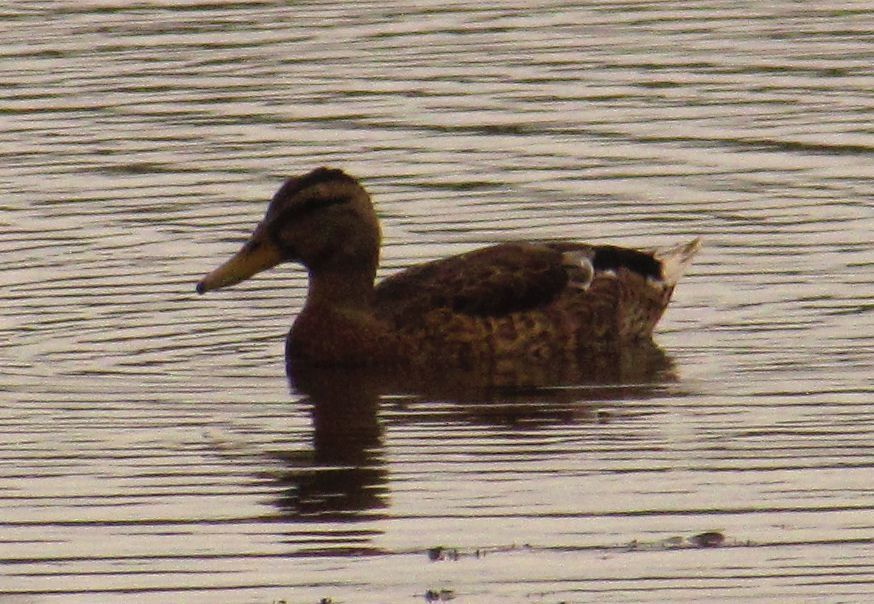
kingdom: Animalia
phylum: Chordata
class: Aves
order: Anseriformes
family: Anatidae
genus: Anas
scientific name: Anas platyrhynchos
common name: Mallard
